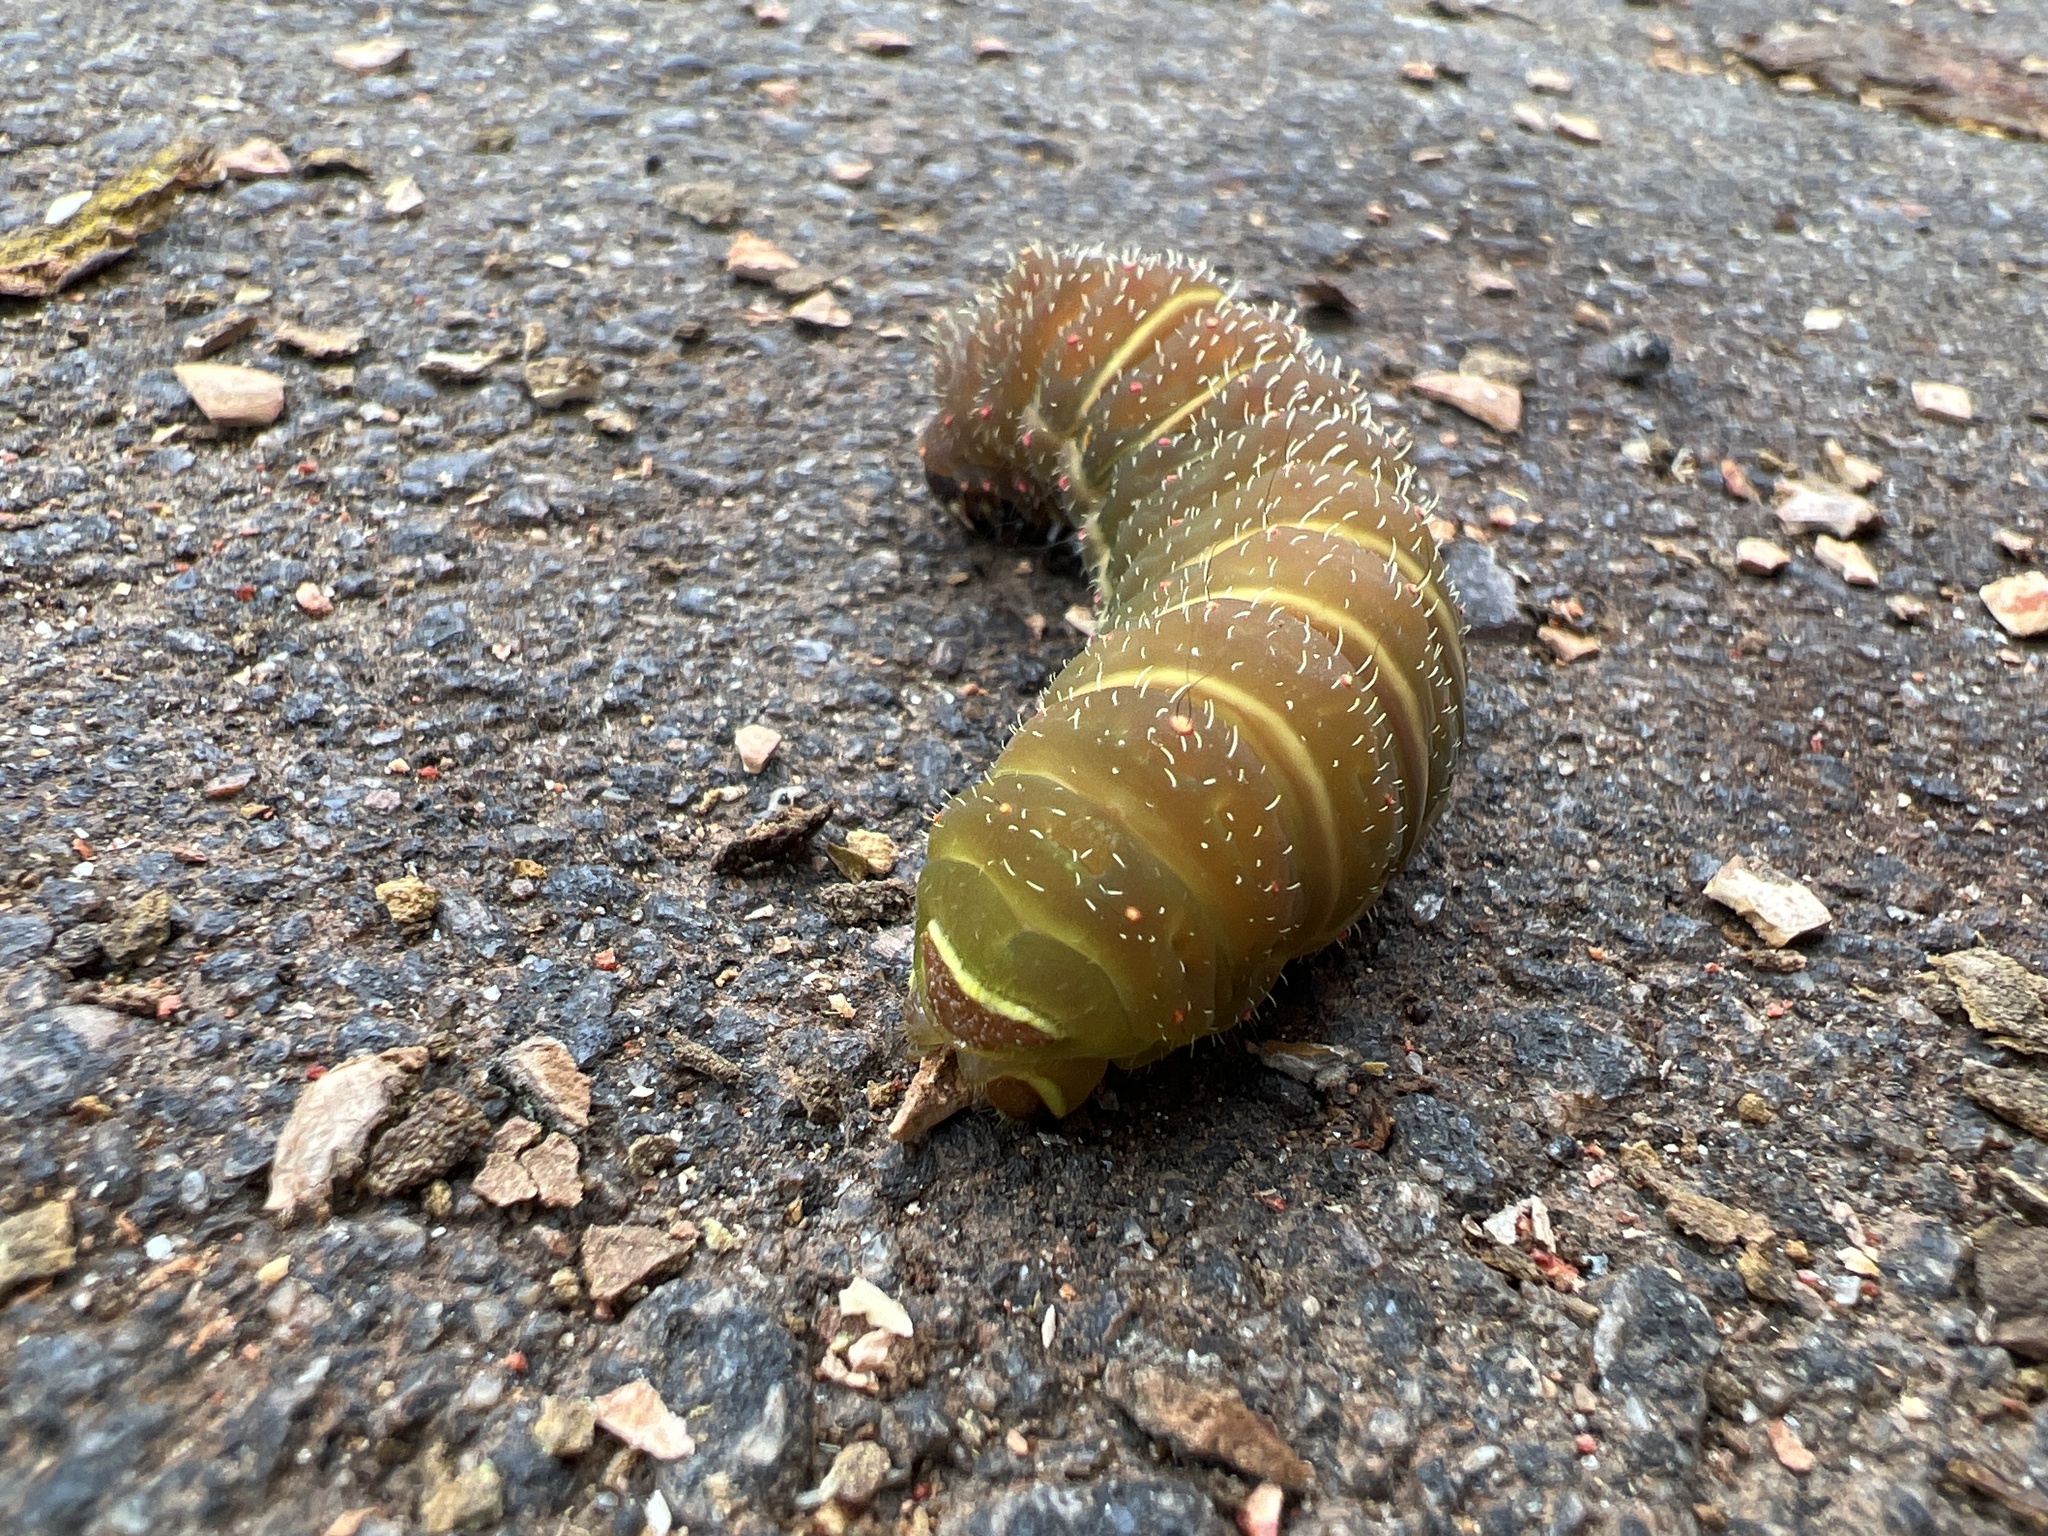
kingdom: Animalia
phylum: Arthropoda
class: Insecta
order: Lepidoptera
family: Saturniidae
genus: Actias
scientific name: Actias luna
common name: Luna moth
